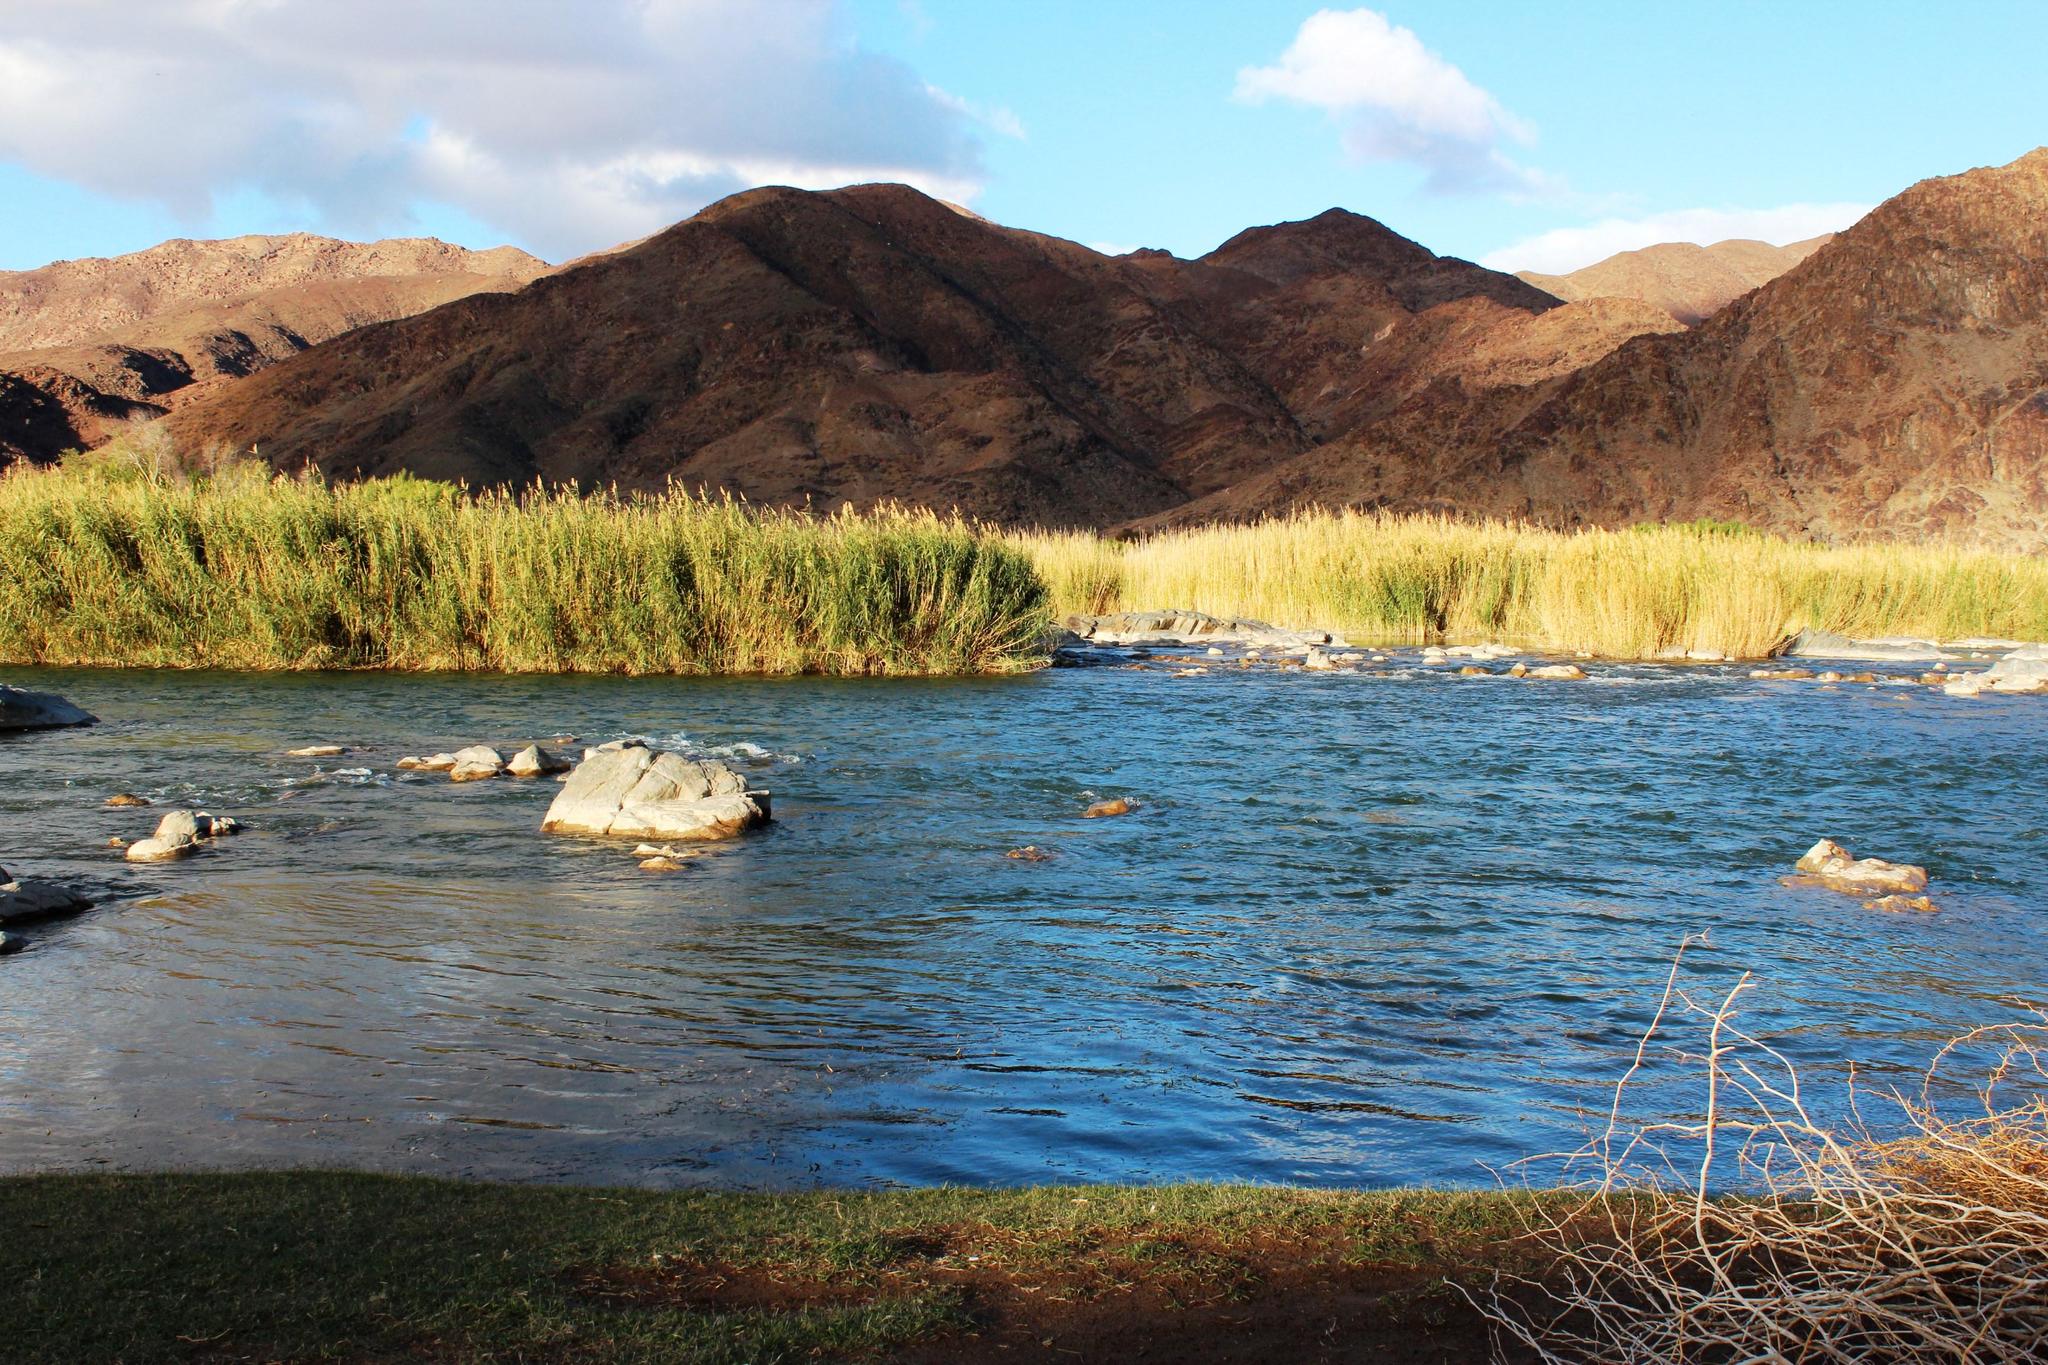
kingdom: Plantae
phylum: Tracheophyta
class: Liliopsida
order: Poales
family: Poaceae
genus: Phragmites
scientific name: Phragmites australis
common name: Common reed
